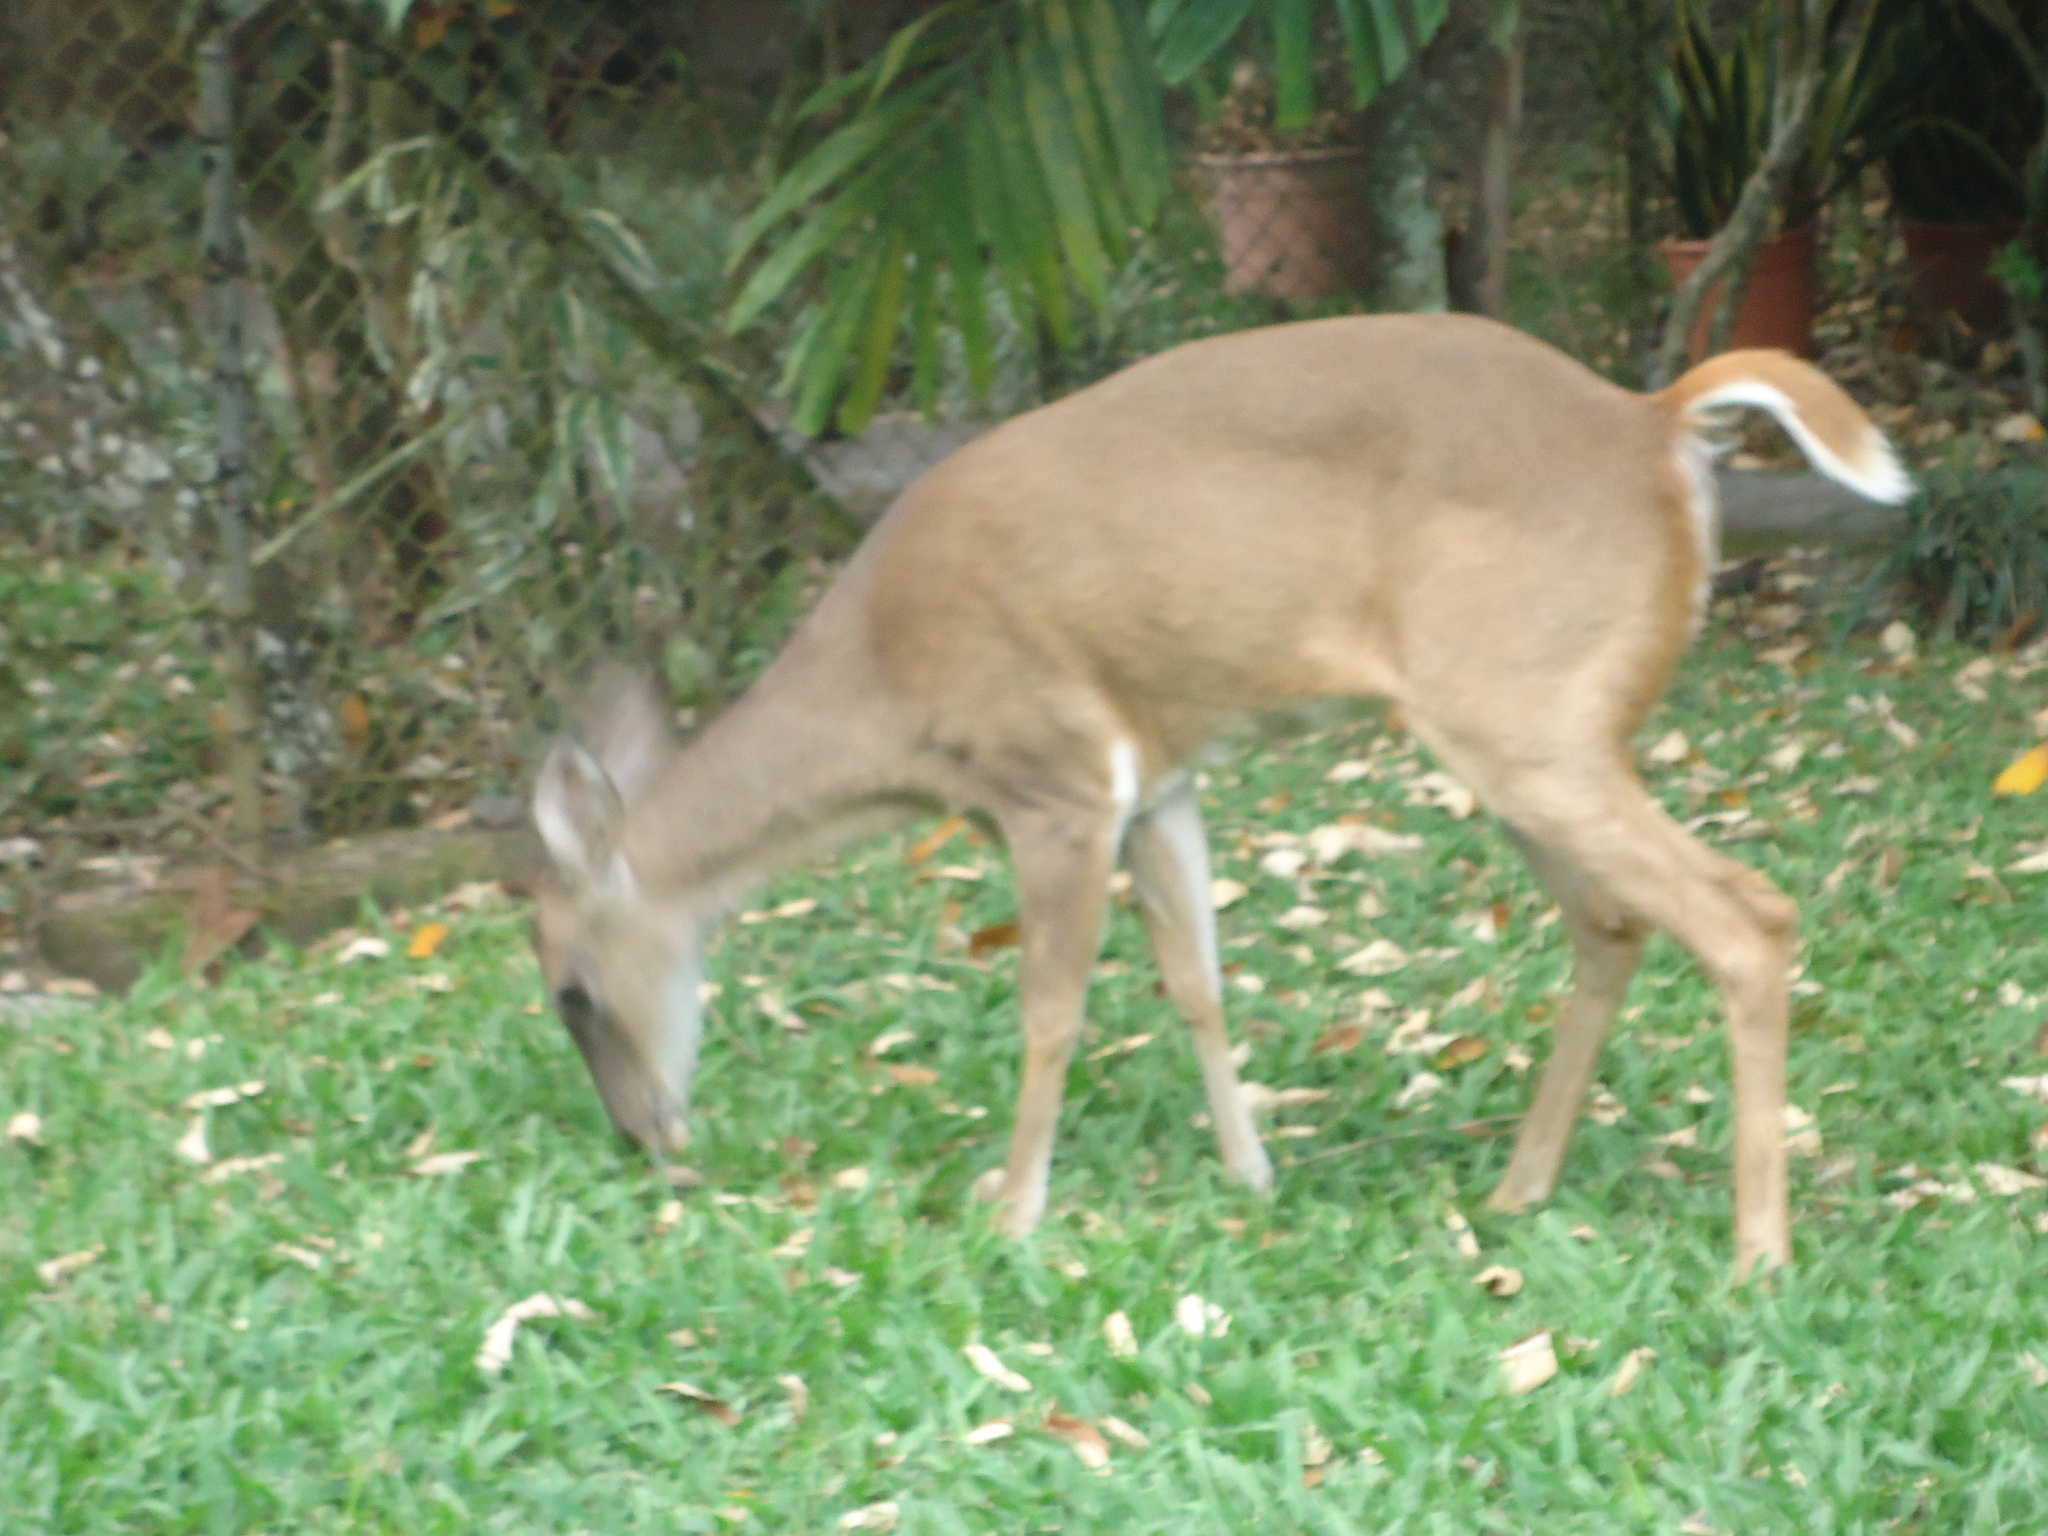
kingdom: Animalia
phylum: Chordata
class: Mammalia
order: Artiodactyla
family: Cervidae
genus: Odocoileus
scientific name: Odocoileus virginianus
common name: White-tailed deer
